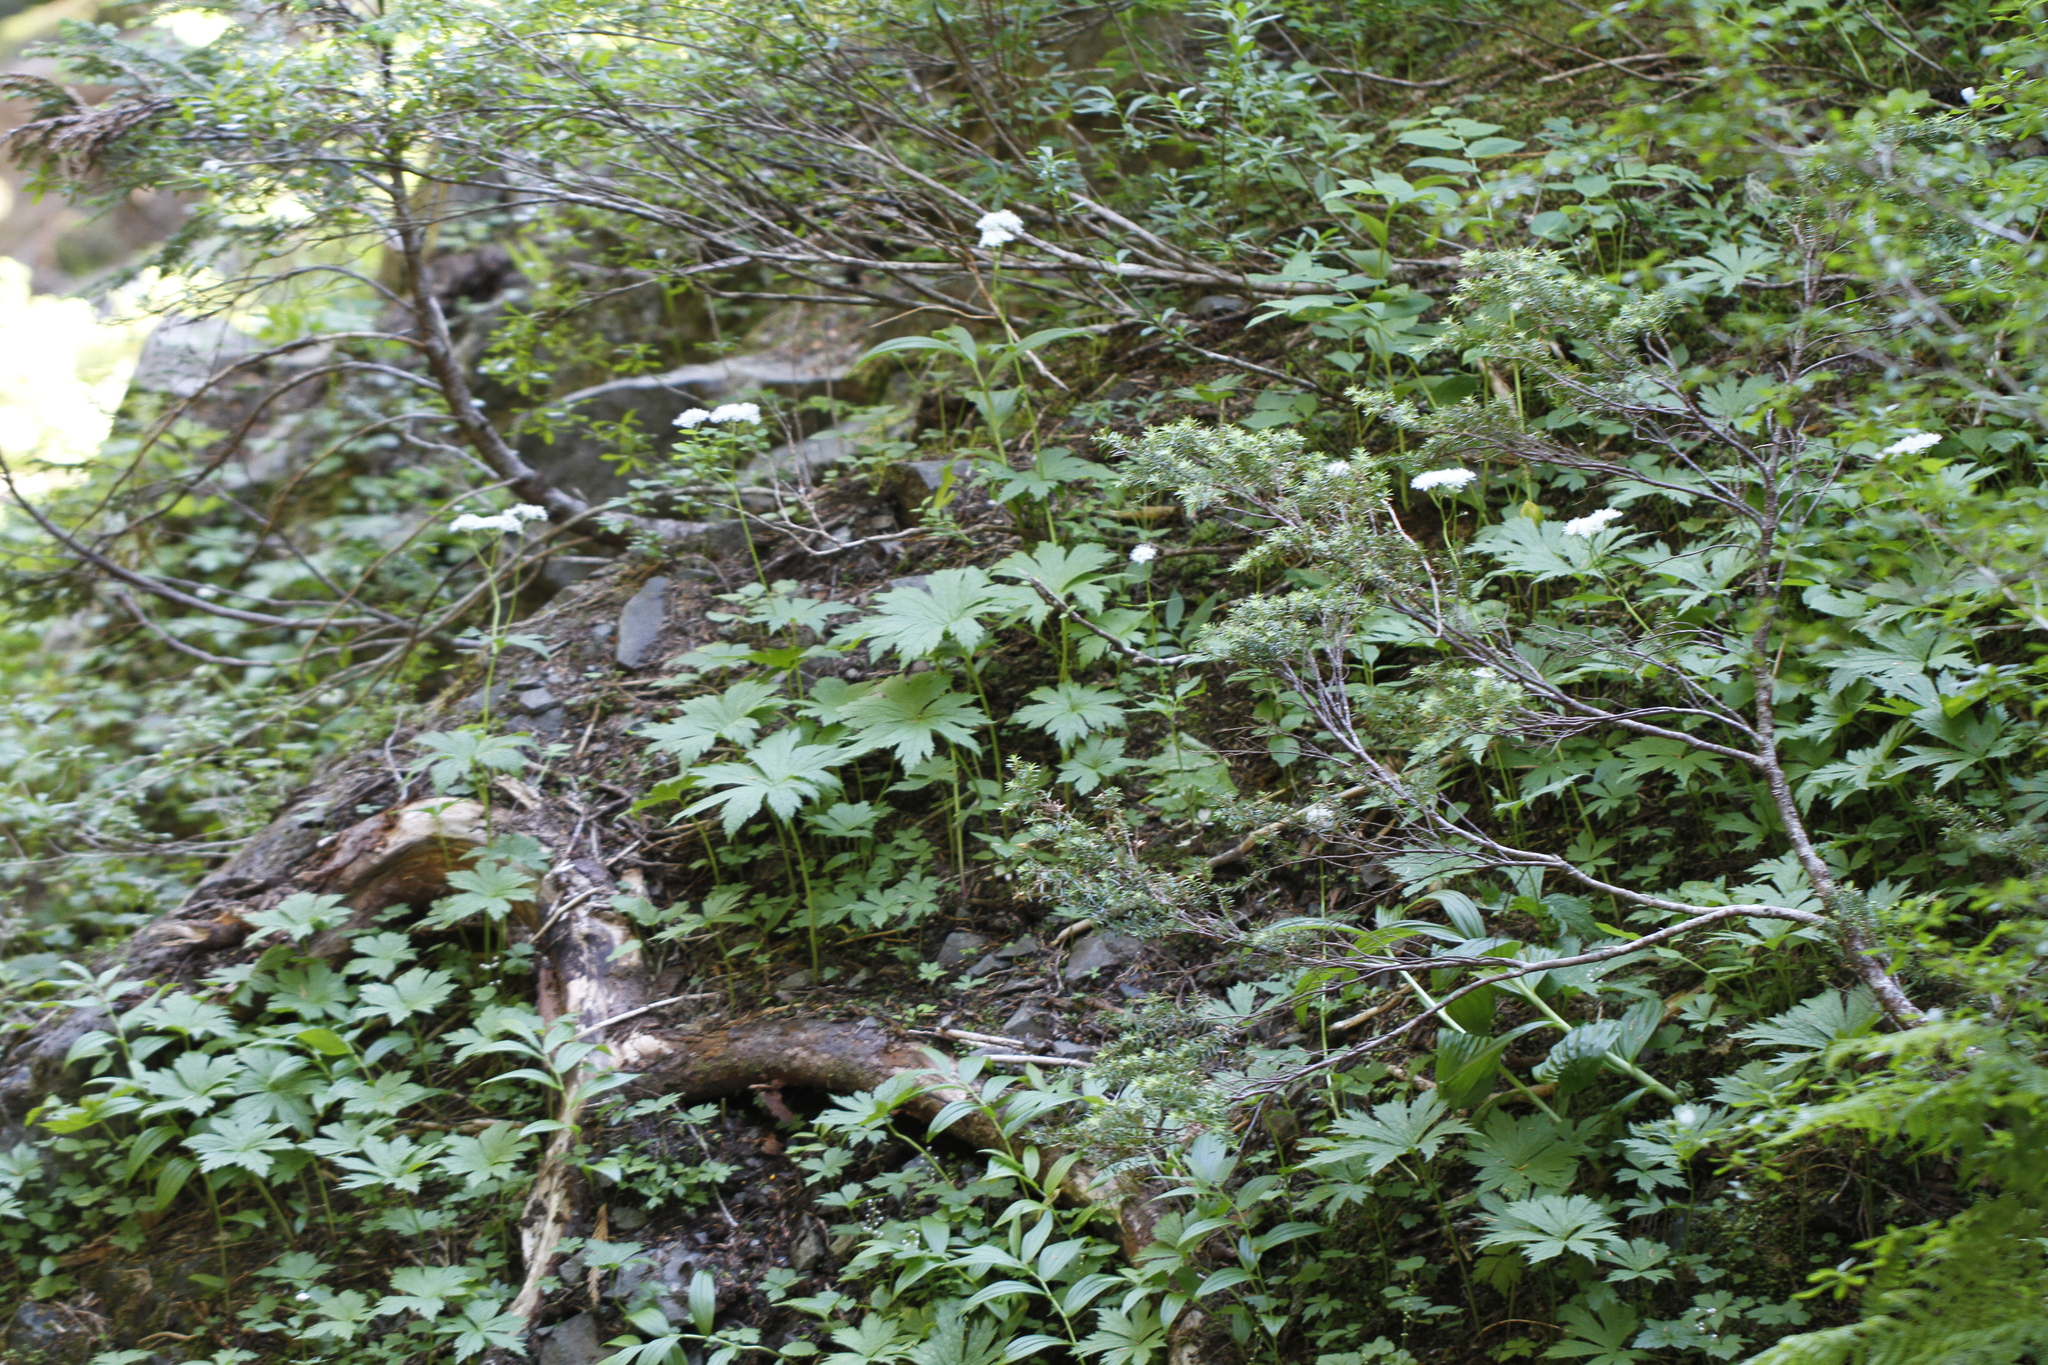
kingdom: Plantae
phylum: Tracheophyta
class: Magnoliopsida
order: Ranunculales
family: Ranunculaceae
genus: Trautvetteria
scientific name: Trautvetteria carolinensis
